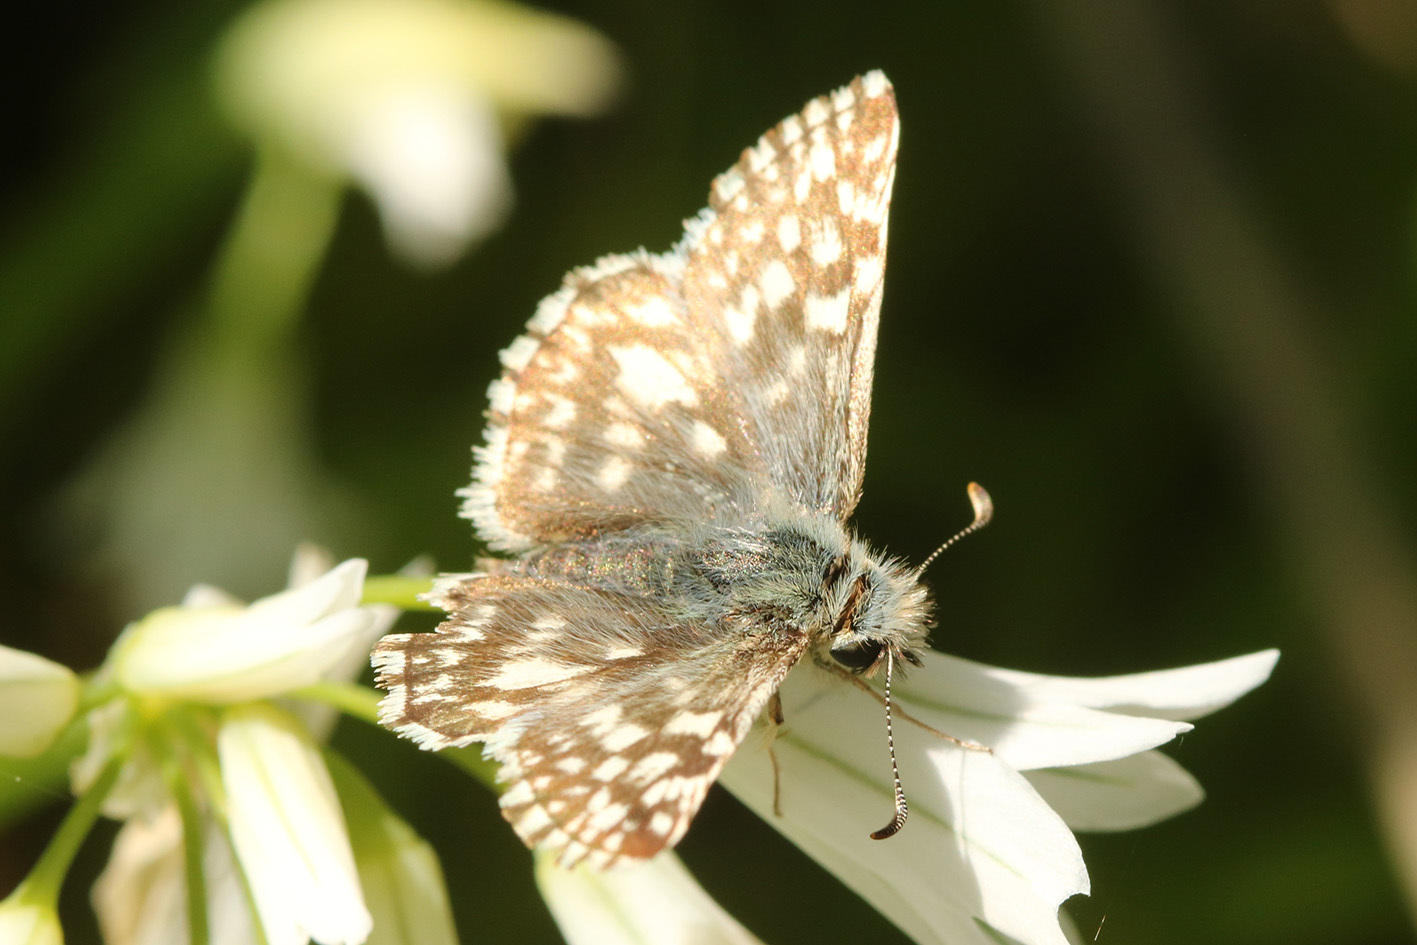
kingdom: Animalia
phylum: Arthropoda
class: Insecta
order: Lepidoptera
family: Hesperiidae
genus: Heliopetes
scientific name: Heliopetes americanus
